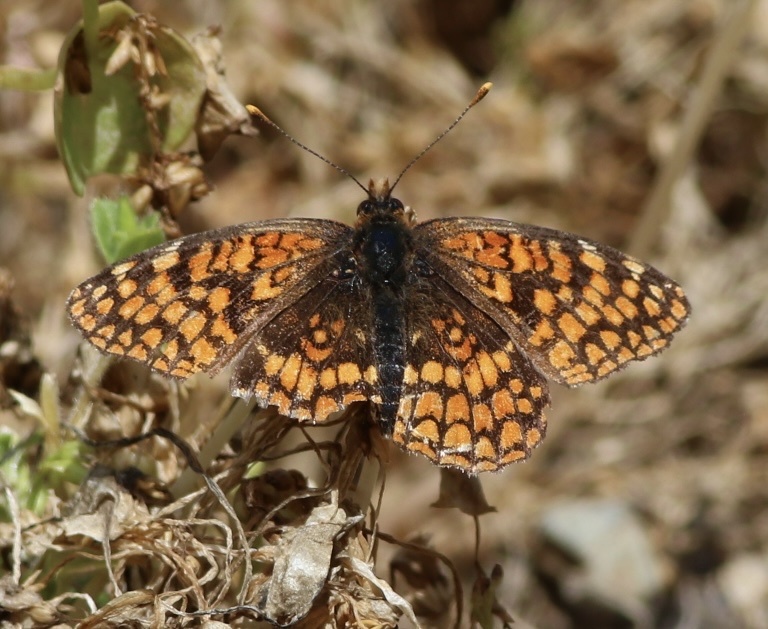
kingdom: Animalia
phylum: Arthropoda
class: Insecta
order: Lepidoptera
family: Nymphalidae
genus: Chlosyne
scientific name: Chlosyne palla
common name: Northern checkerspot
